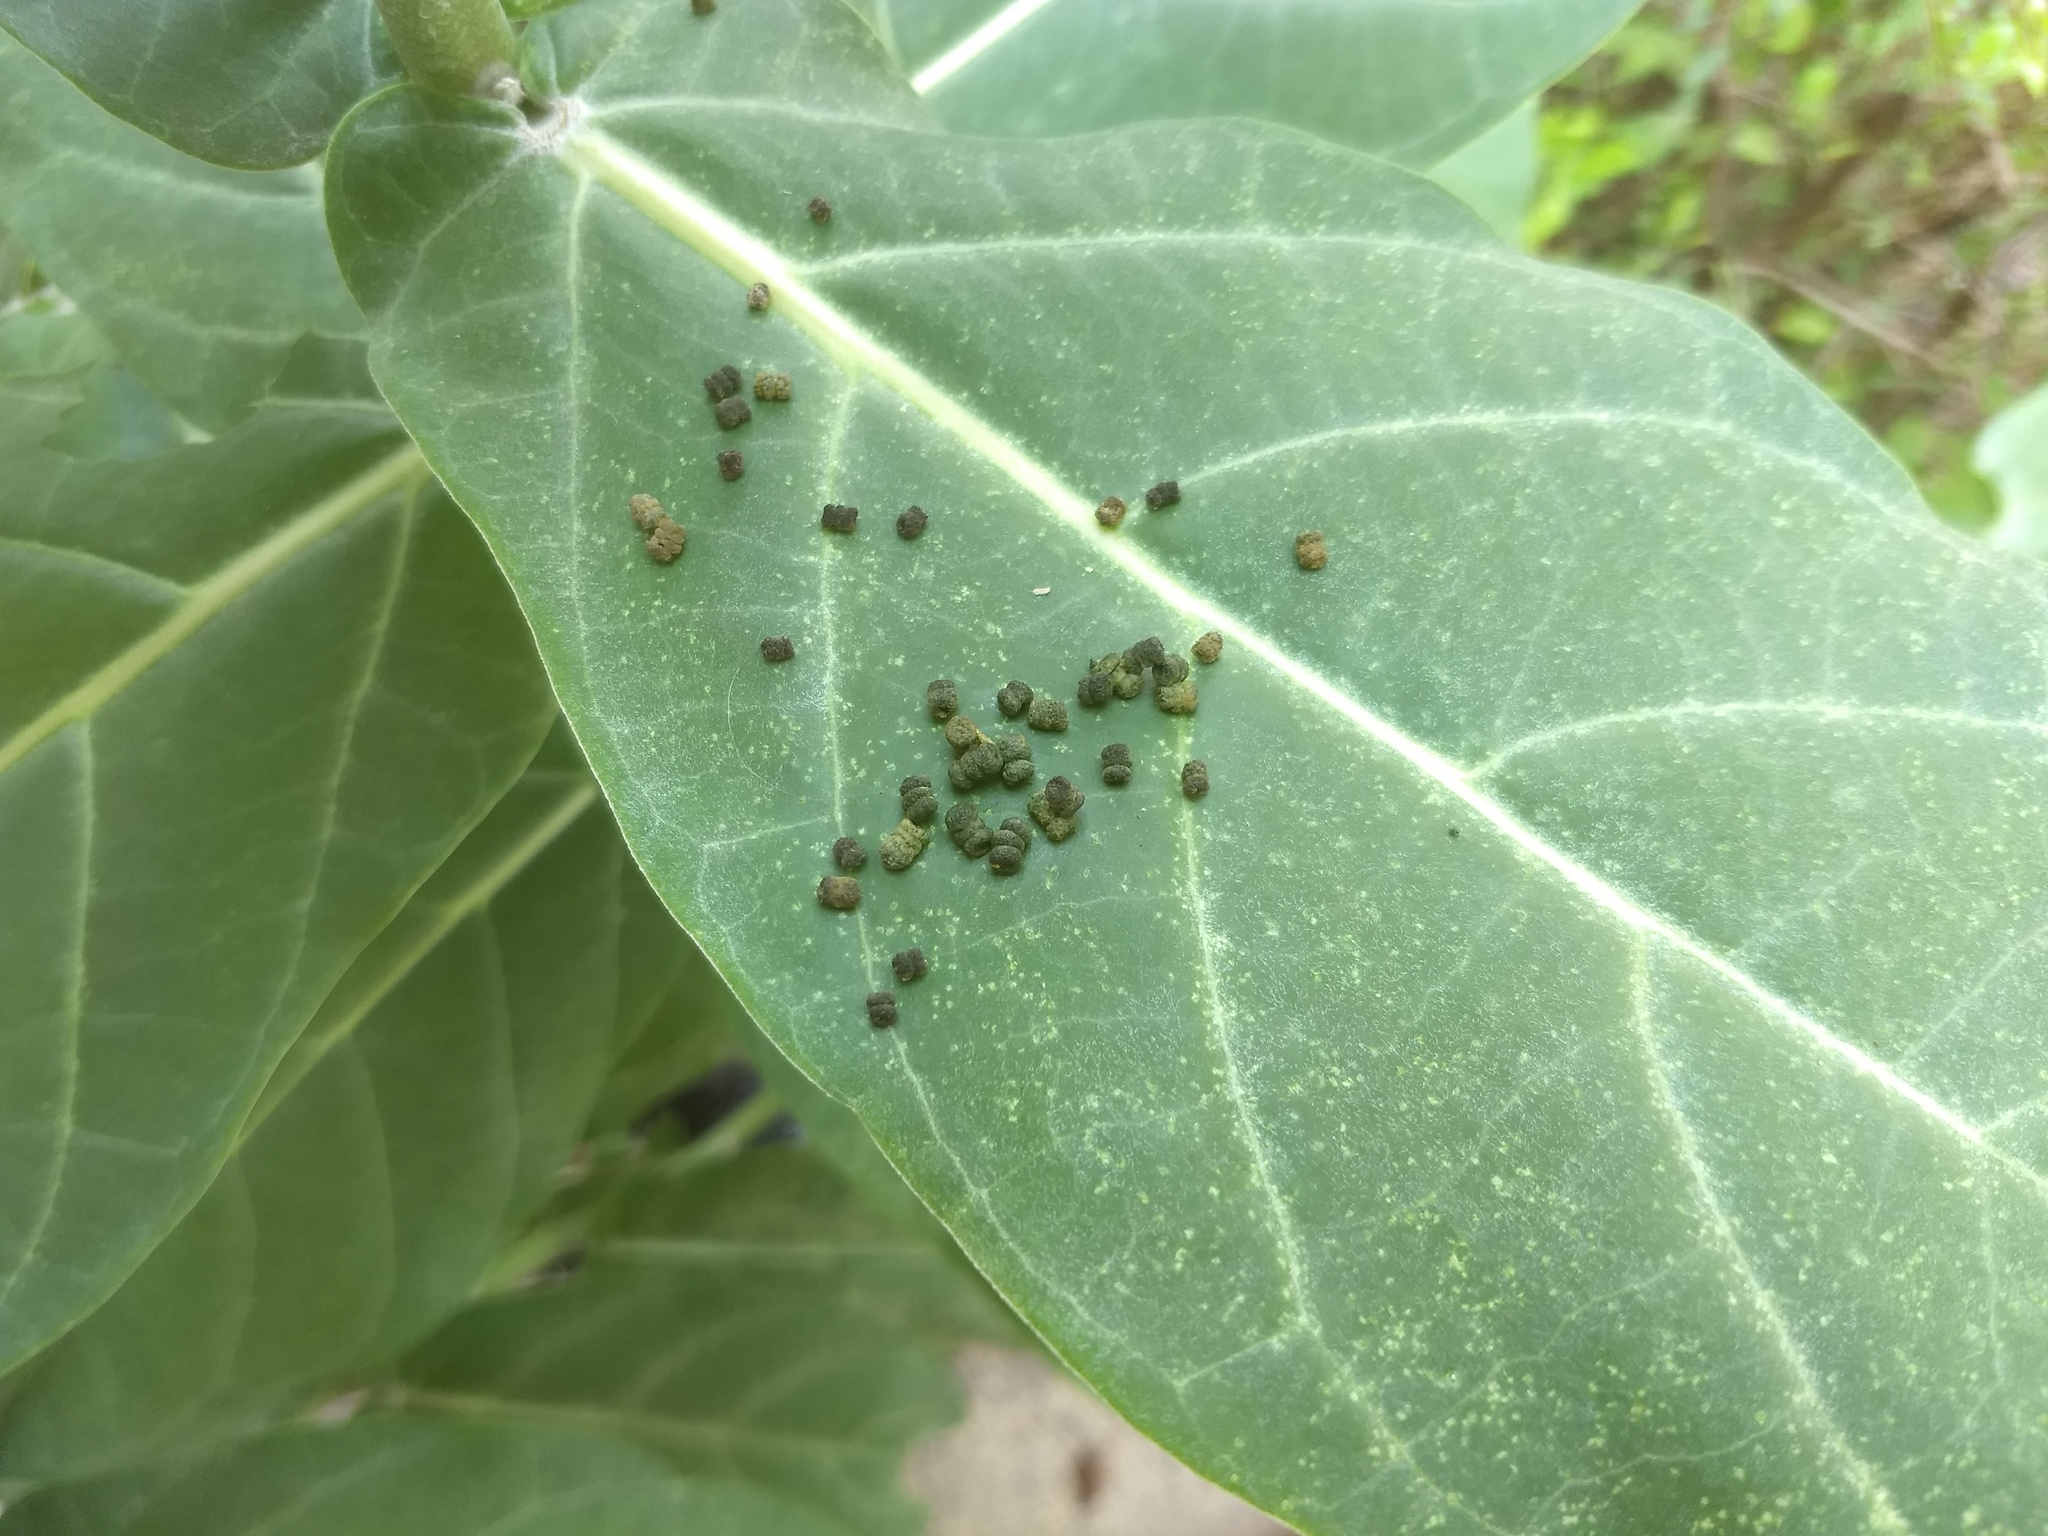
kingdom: Animalia
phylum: Arthropoda
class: Insecta
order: Lepidoptera
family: Nymphalidae
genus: Danaus
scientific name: Danaus chrysippus
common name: Plain tiger
